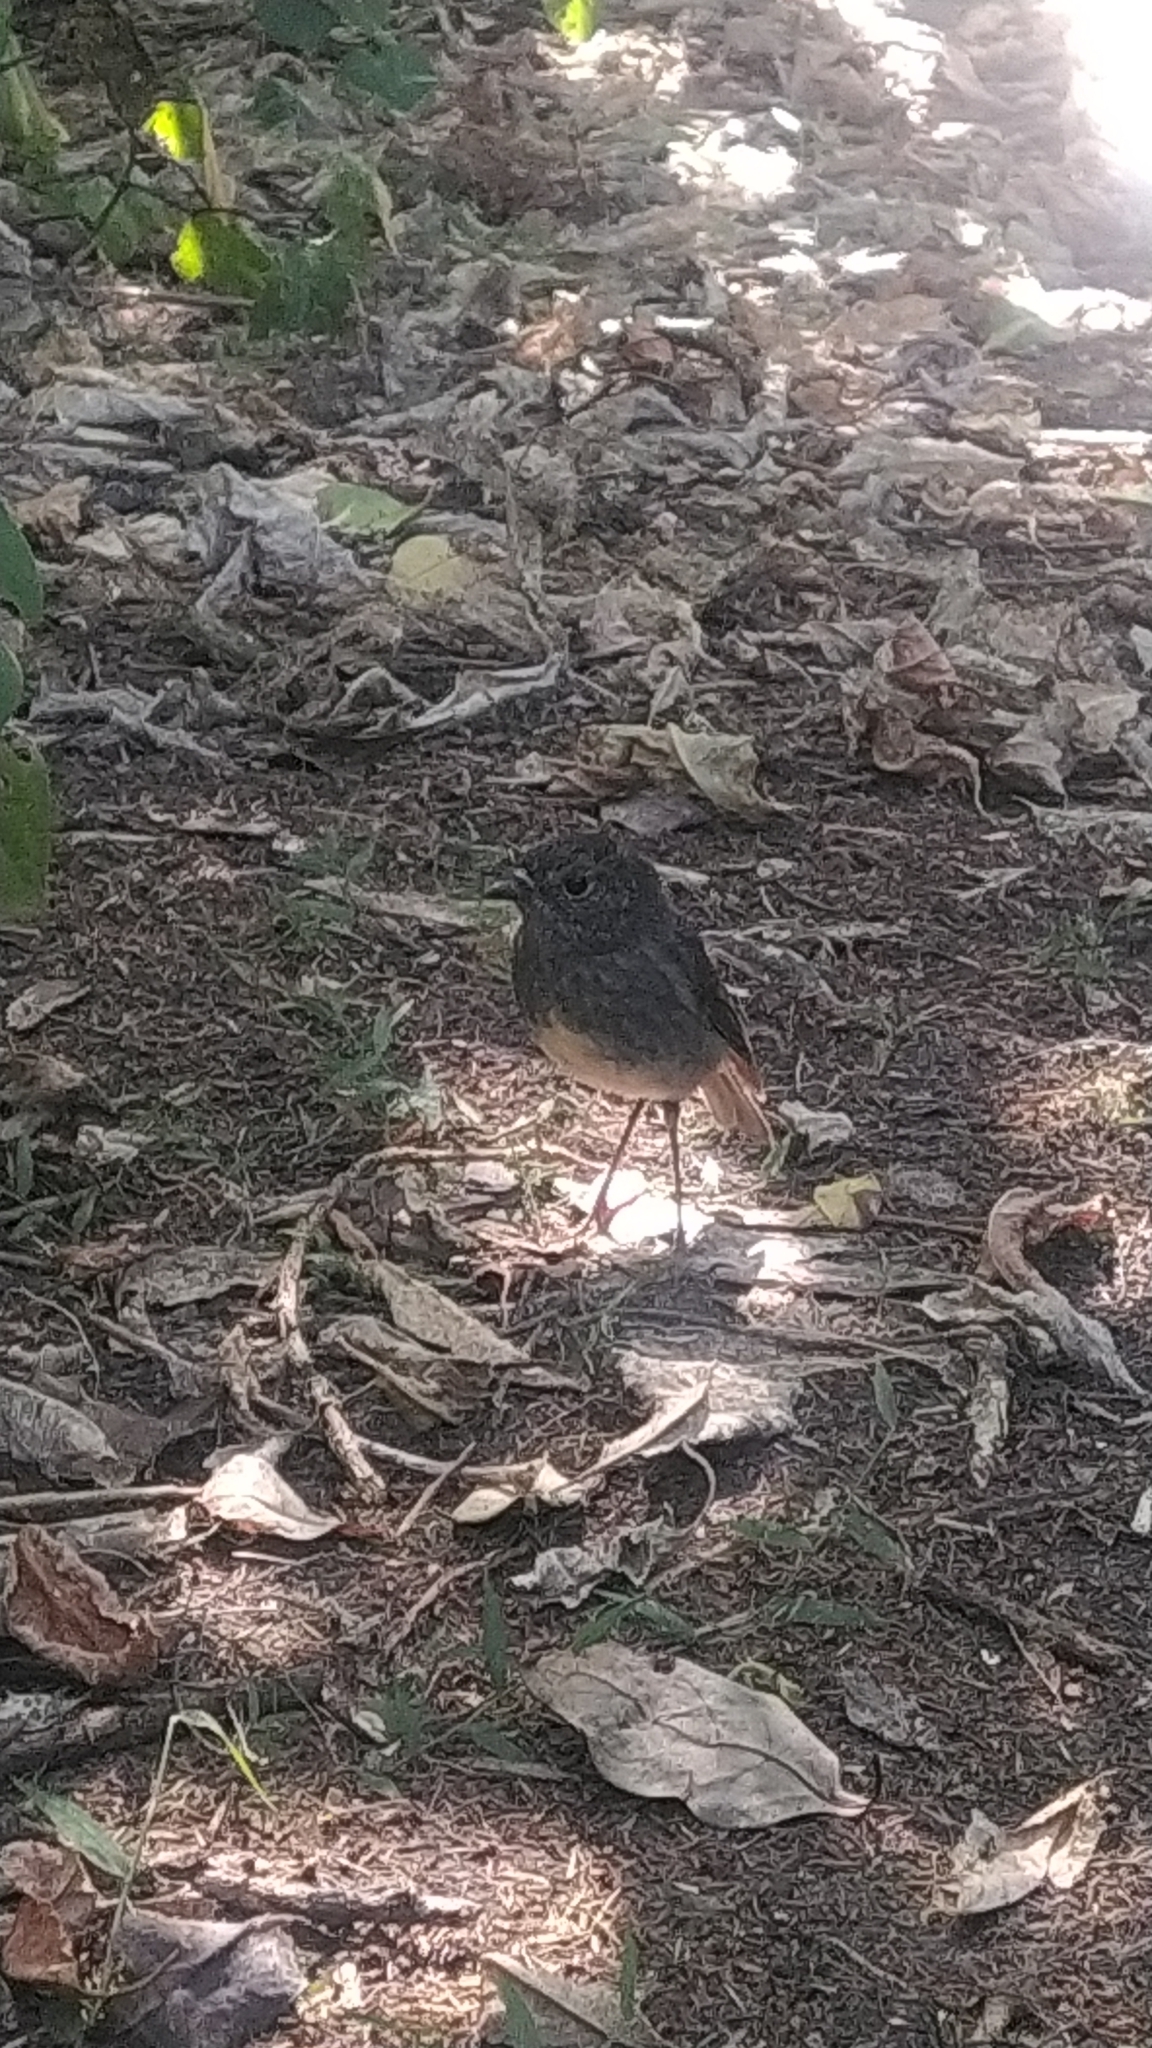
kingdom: Animalia
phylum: Chordata
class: Aves
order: Passeriformes
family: Petroicidae
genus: Petroica
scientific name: Petroica australis
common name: New zealand robin
